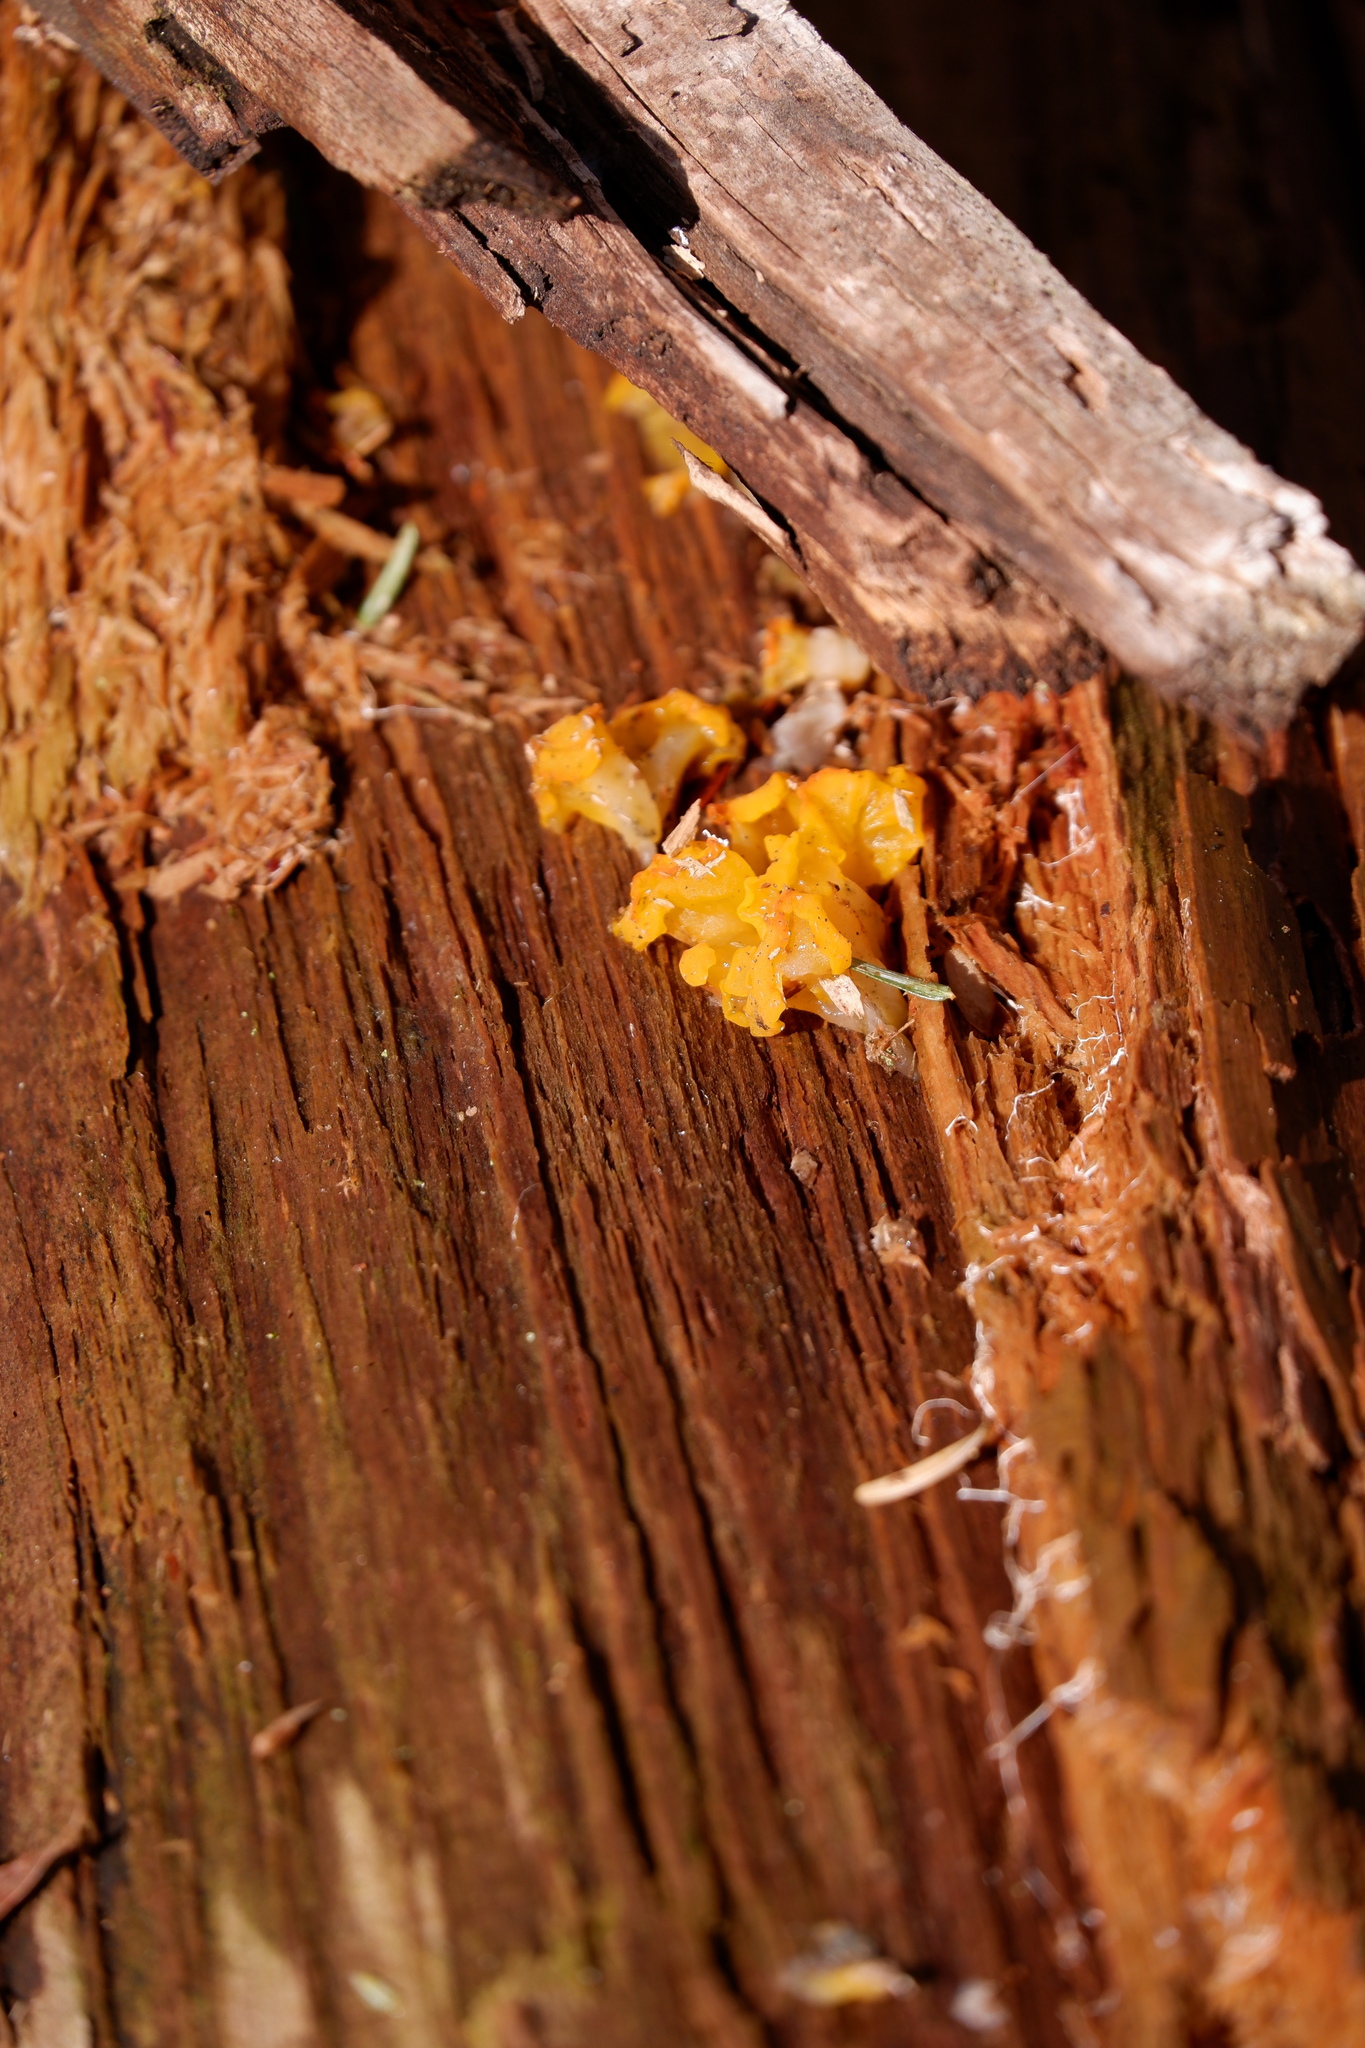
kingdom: Fungi
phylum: Basidiomycota
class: Dacrymycetes
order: Dacrymycetales
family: Dacrymycetaceae
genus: Dacrymyces
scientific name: Dacrymyces chrysospermus
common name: Orange jelly spot
